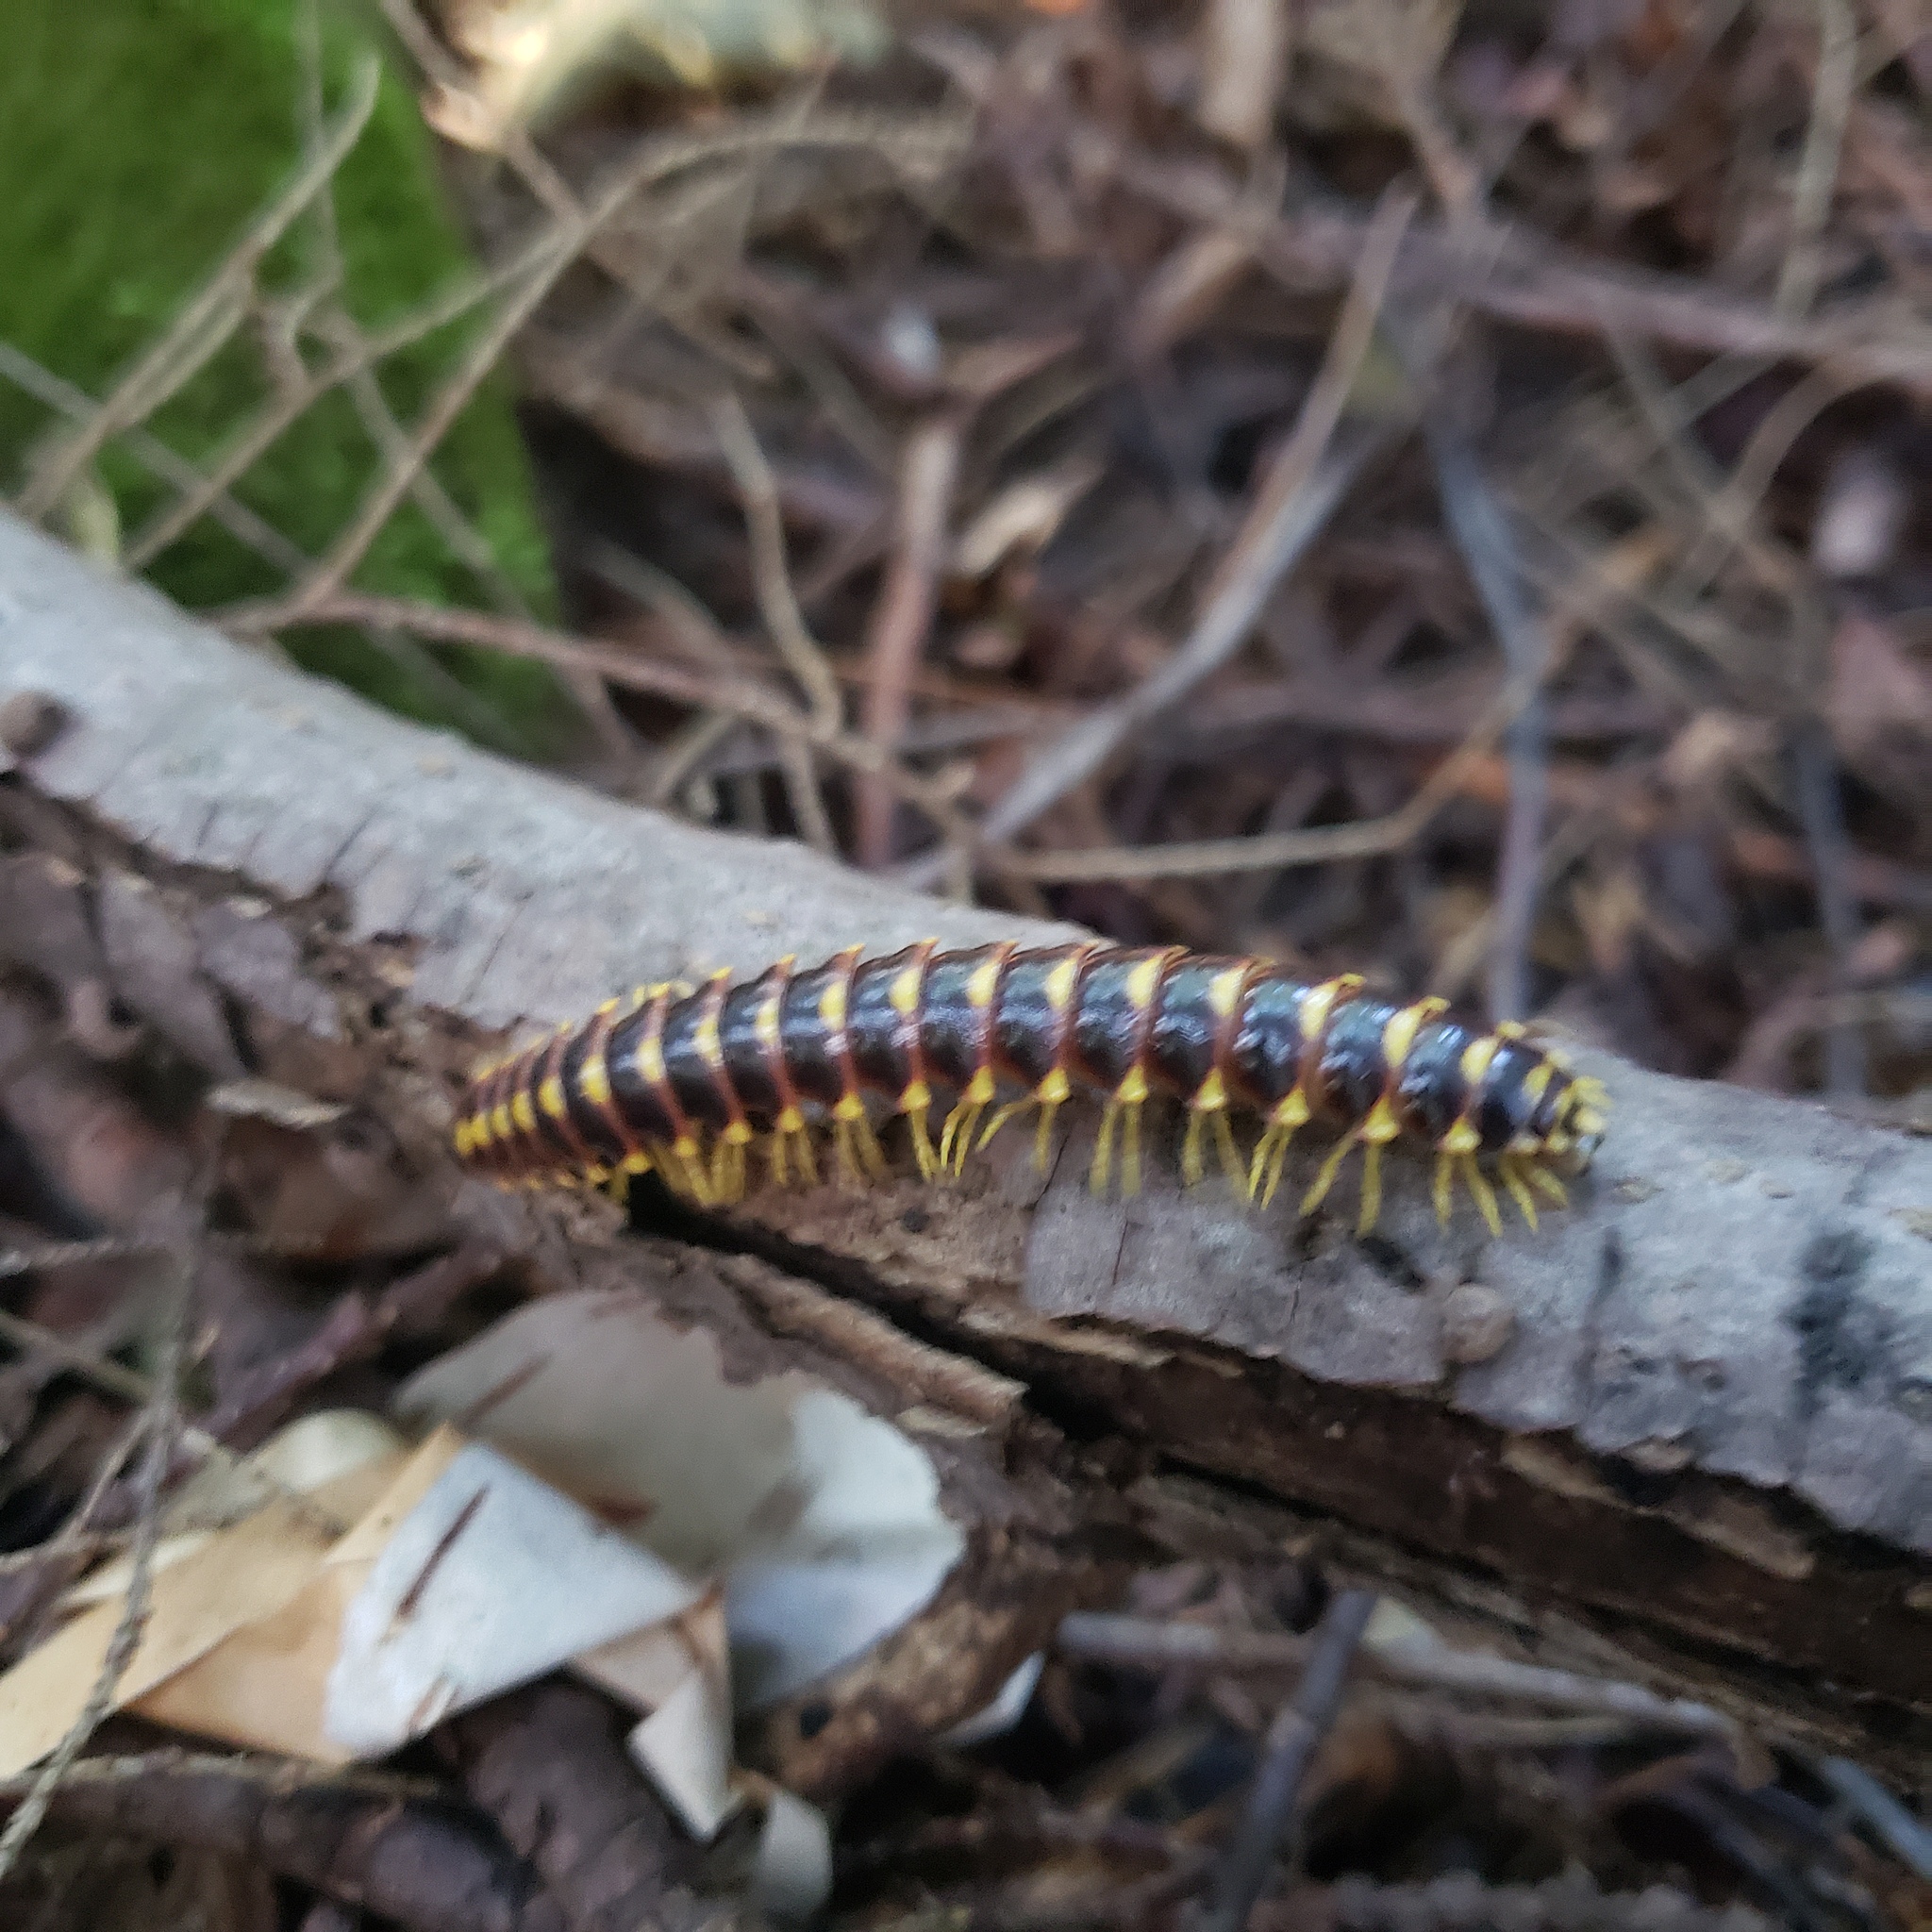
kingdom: Animalia
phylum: Arthropoda
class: Diplopoda
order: Polydesmida
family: Xystodesmidae
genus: Rudiloria
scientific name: Rudiloria trimaculata
